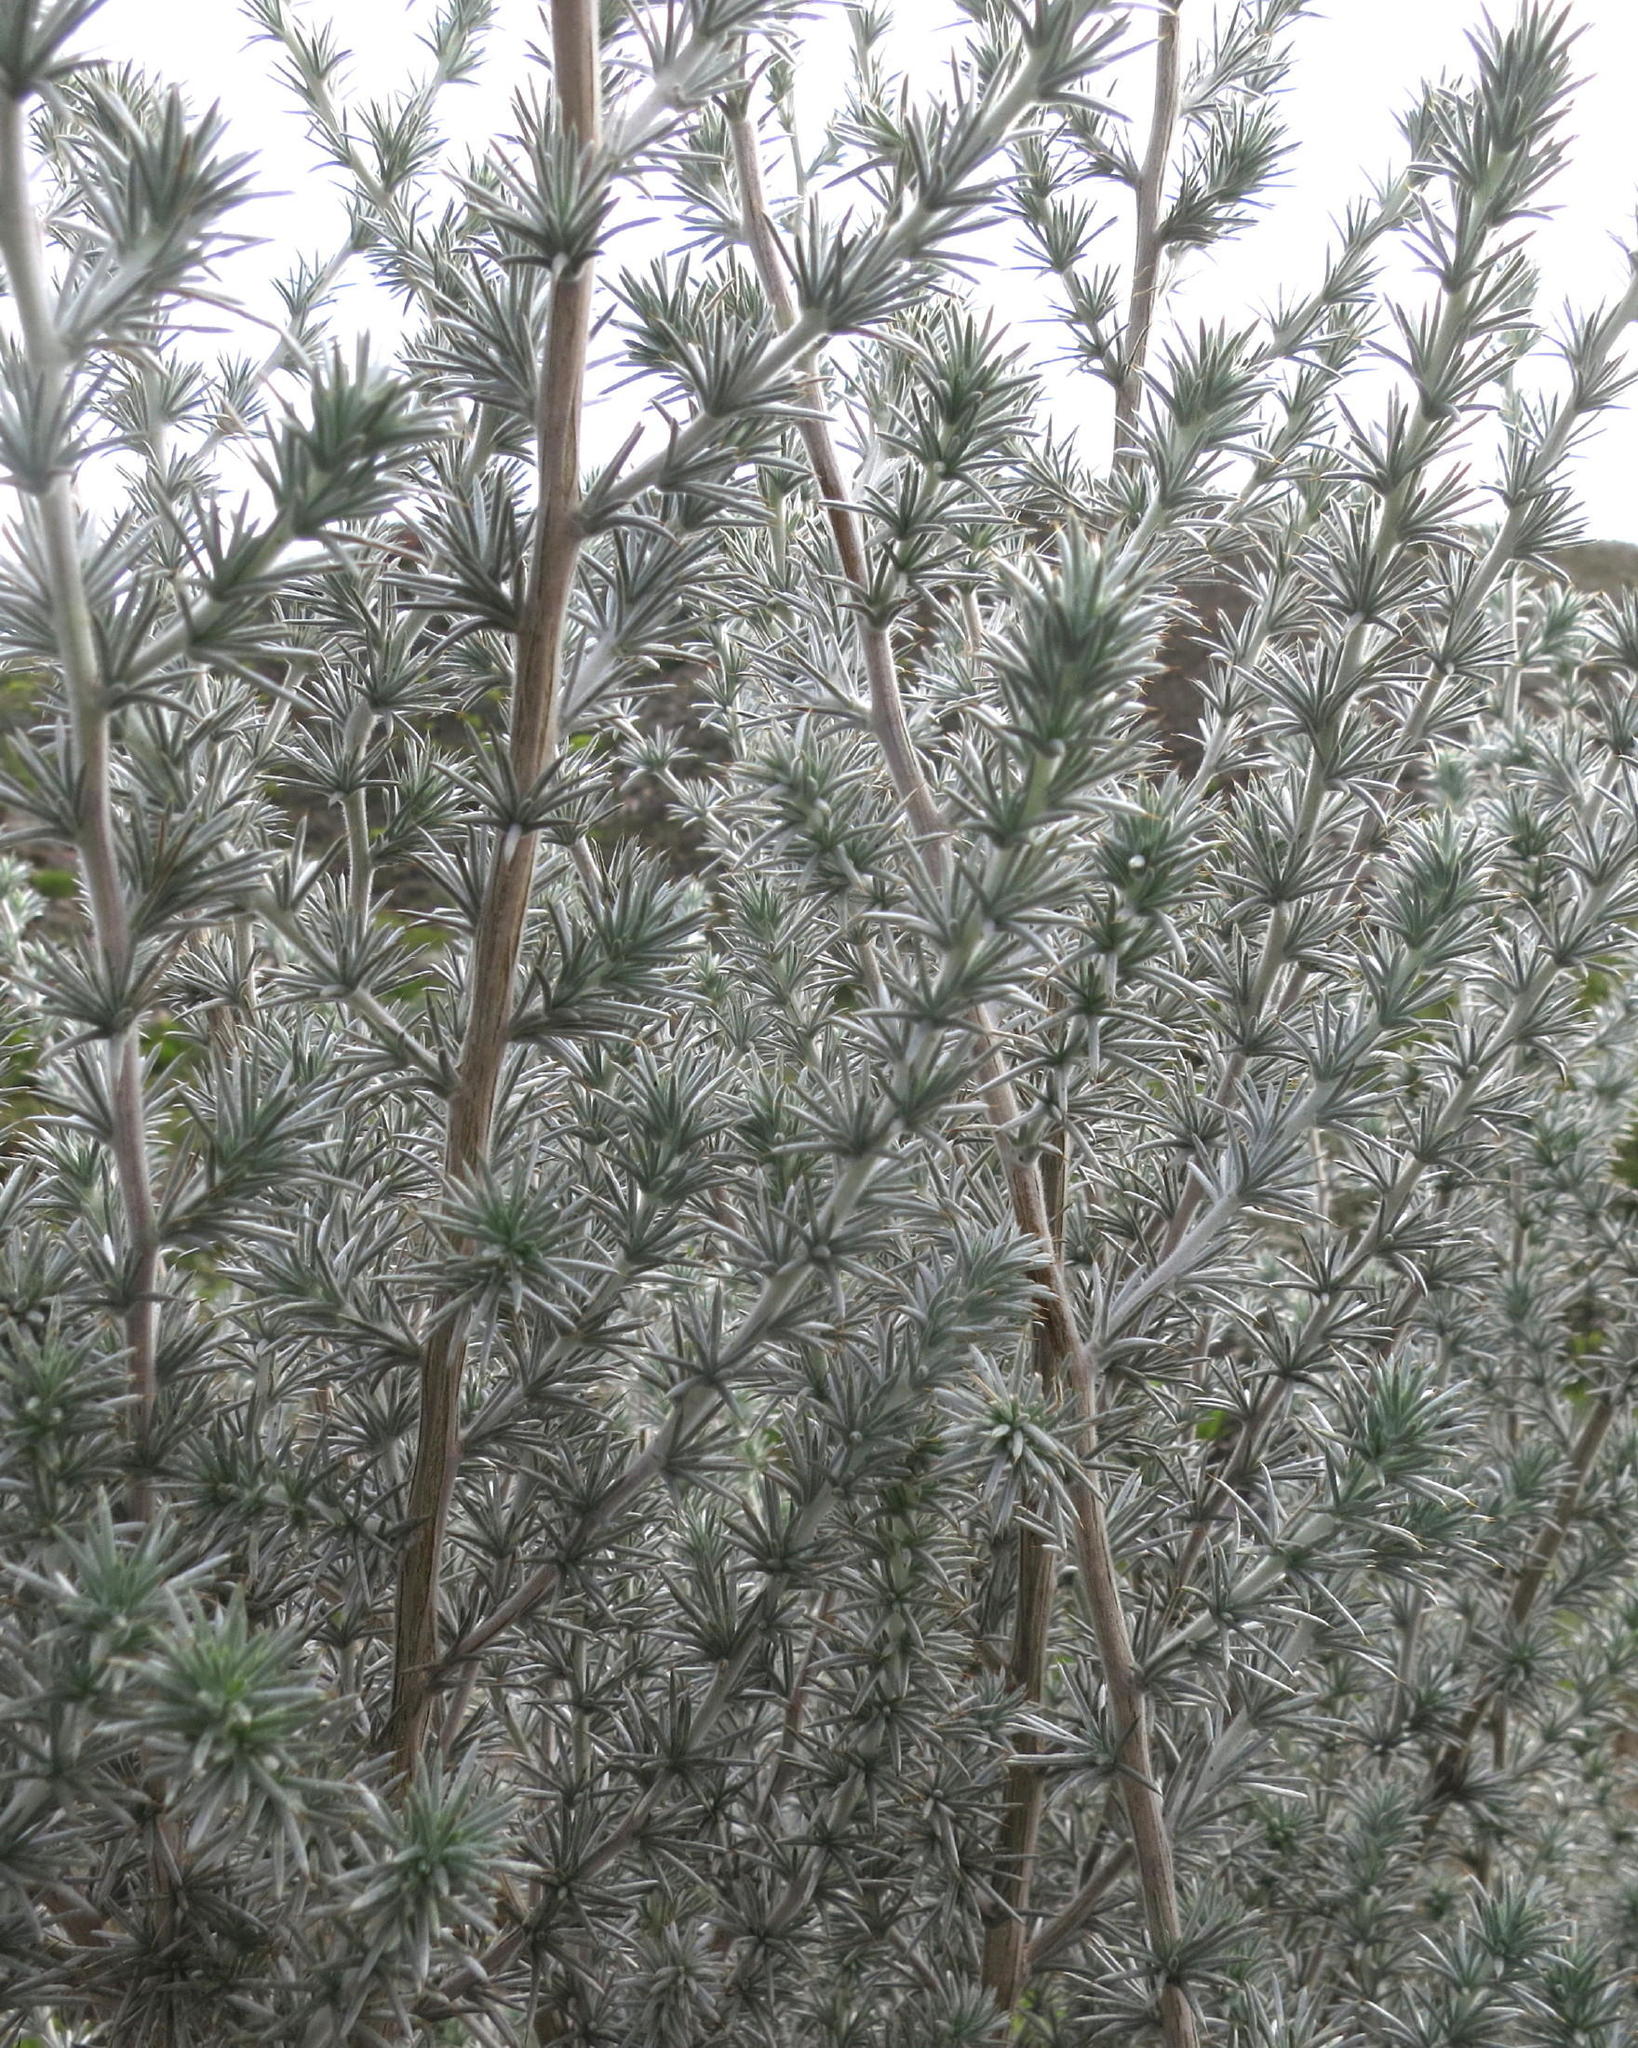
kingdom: Plantae
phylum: Tracheophyta
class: Magnoliopsida
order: Fabales
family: Fabaceae
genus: Aspalathus
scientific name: Aspalathus hystrix
